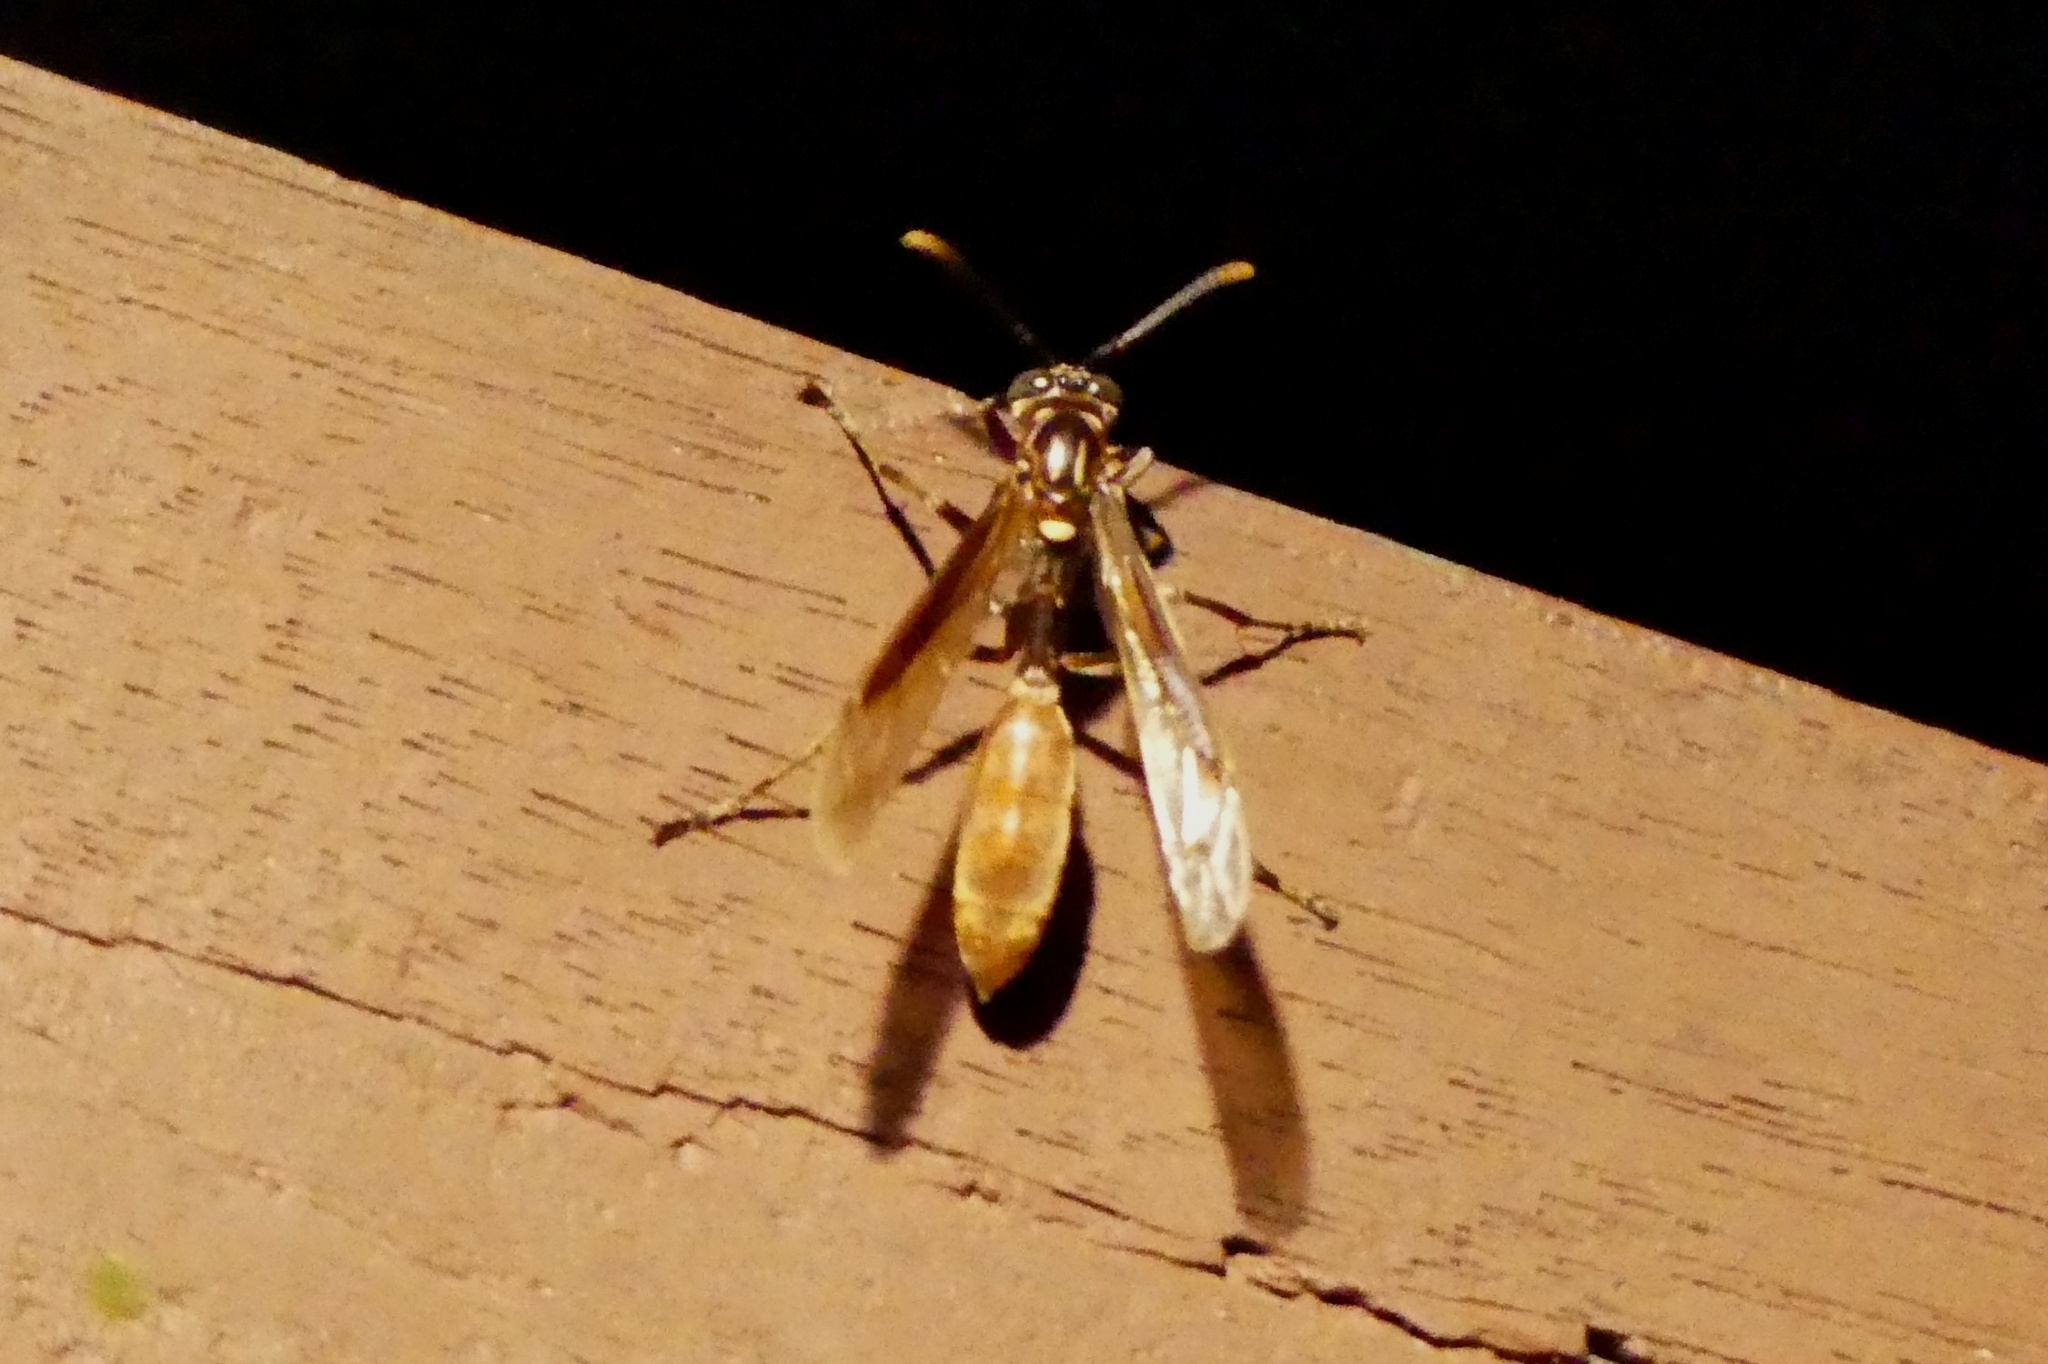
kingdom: Animalia
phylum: Arthropoda
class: Insecta
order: Hymenoptera
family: Vespidae
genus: Apoica
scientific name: Apoica pallens
